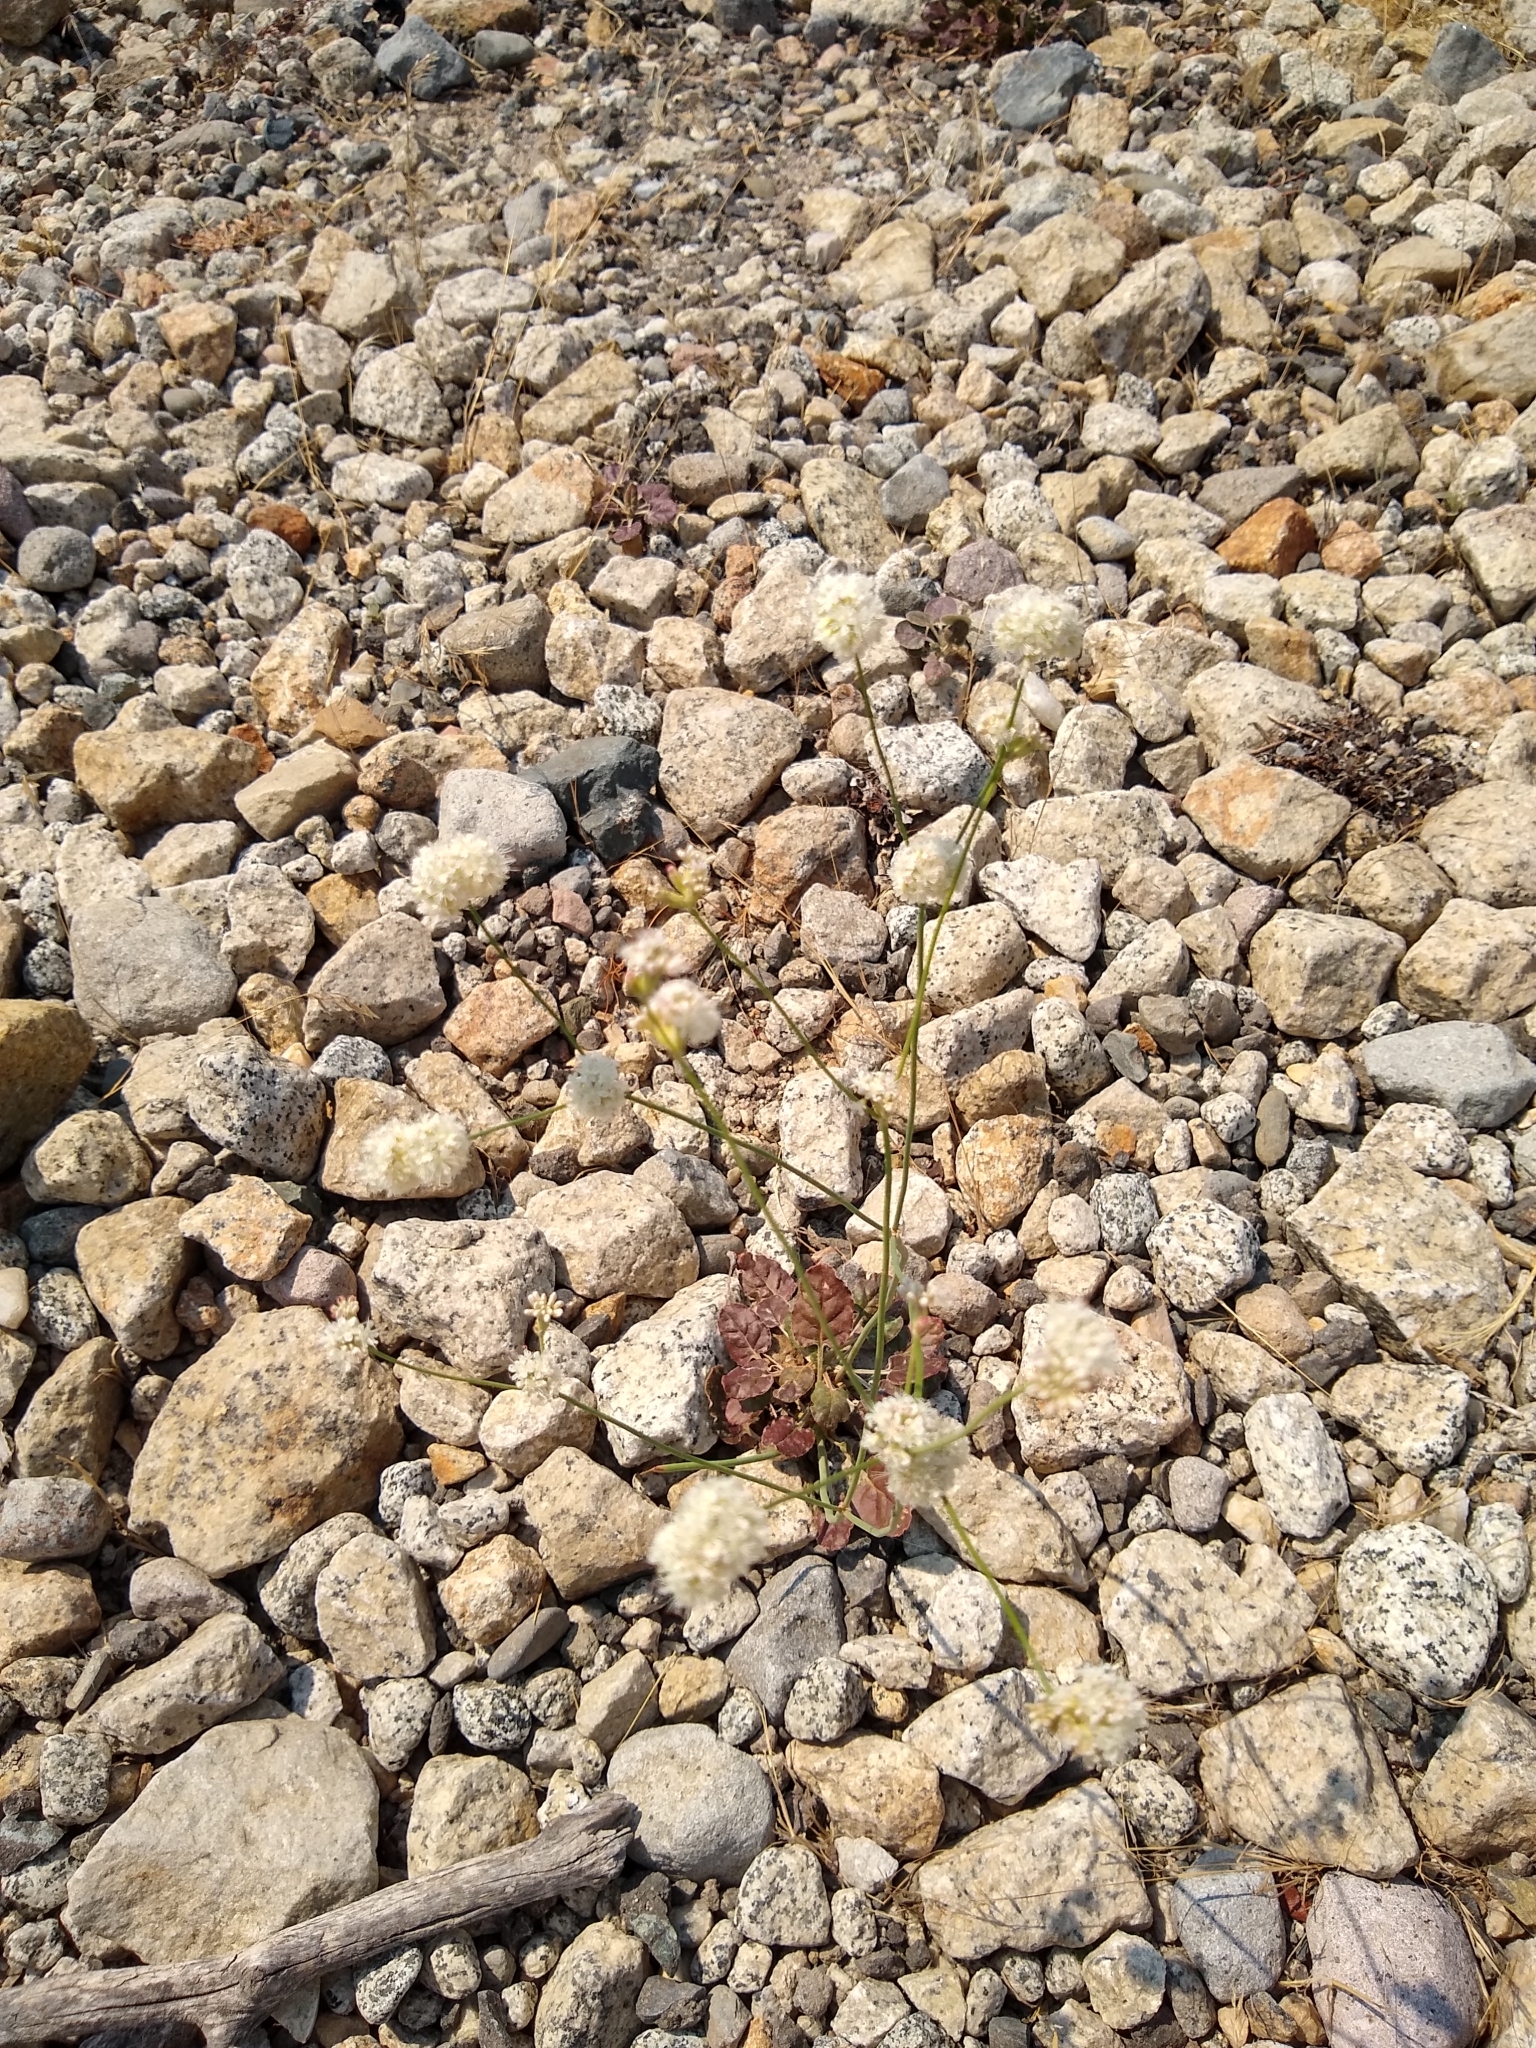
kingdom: Plantae
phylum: Tracheophyta
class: Magnoliopsida
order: Caryophyllales
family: Polygonaceae
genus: Eriogonum
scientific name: Eriogonum nudum
